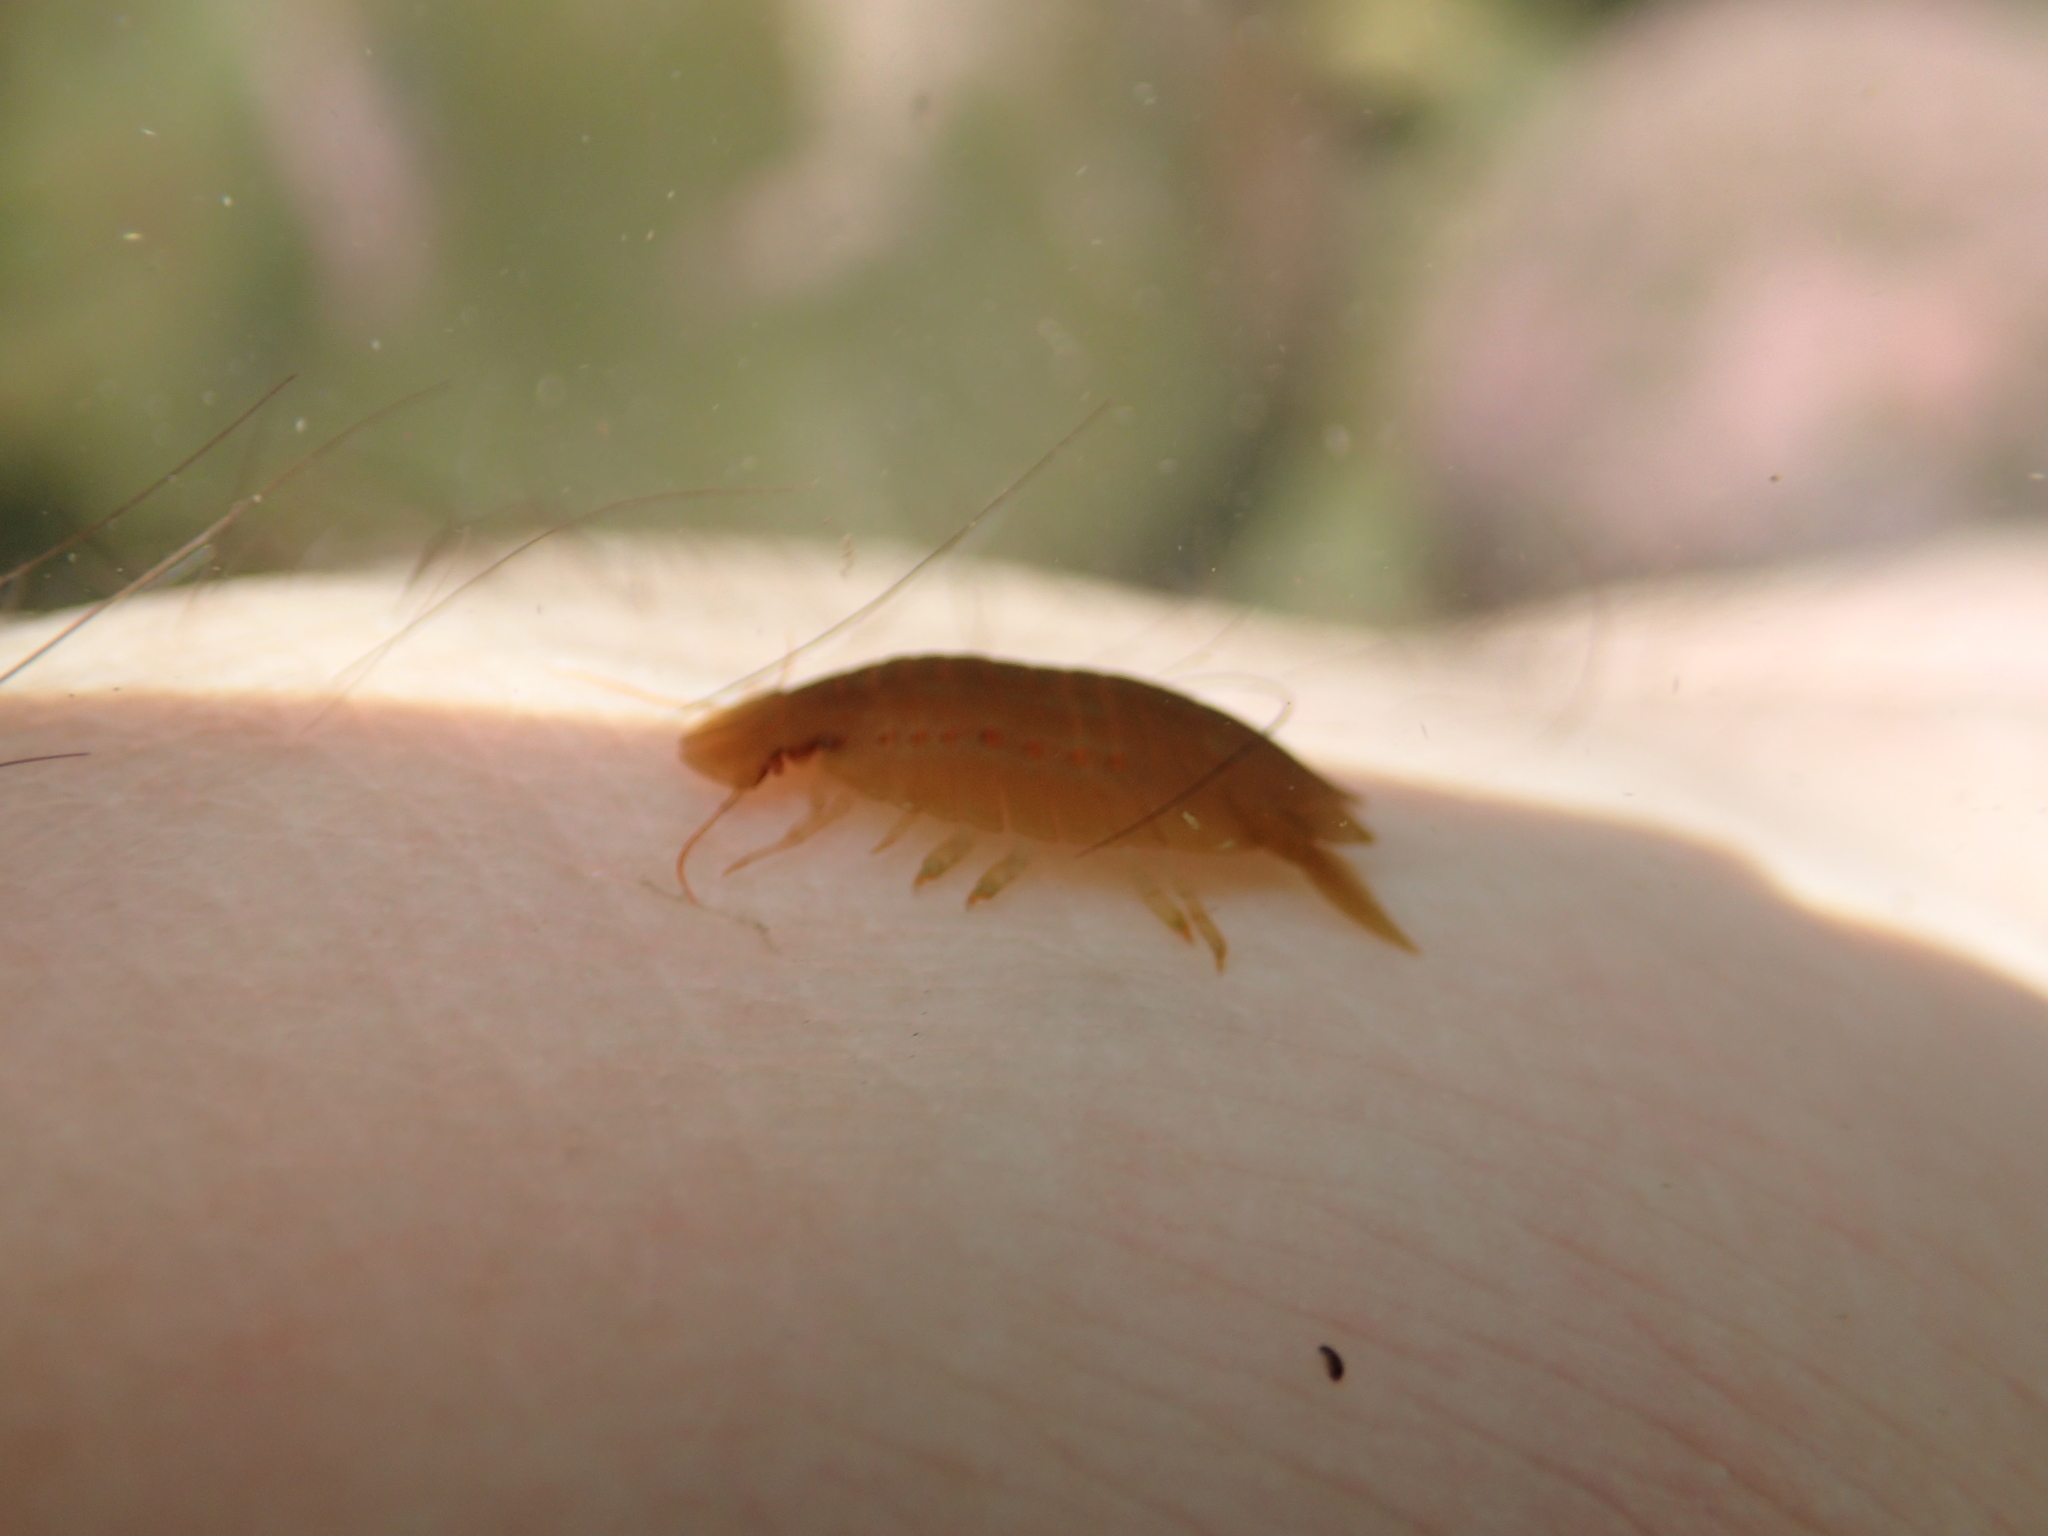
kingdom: Animalia
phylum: Arthropoda
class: Malacostraca
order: Isopoda
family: Sphaeromatidae
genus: Amphoroidea
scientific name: Amphoroidea media
